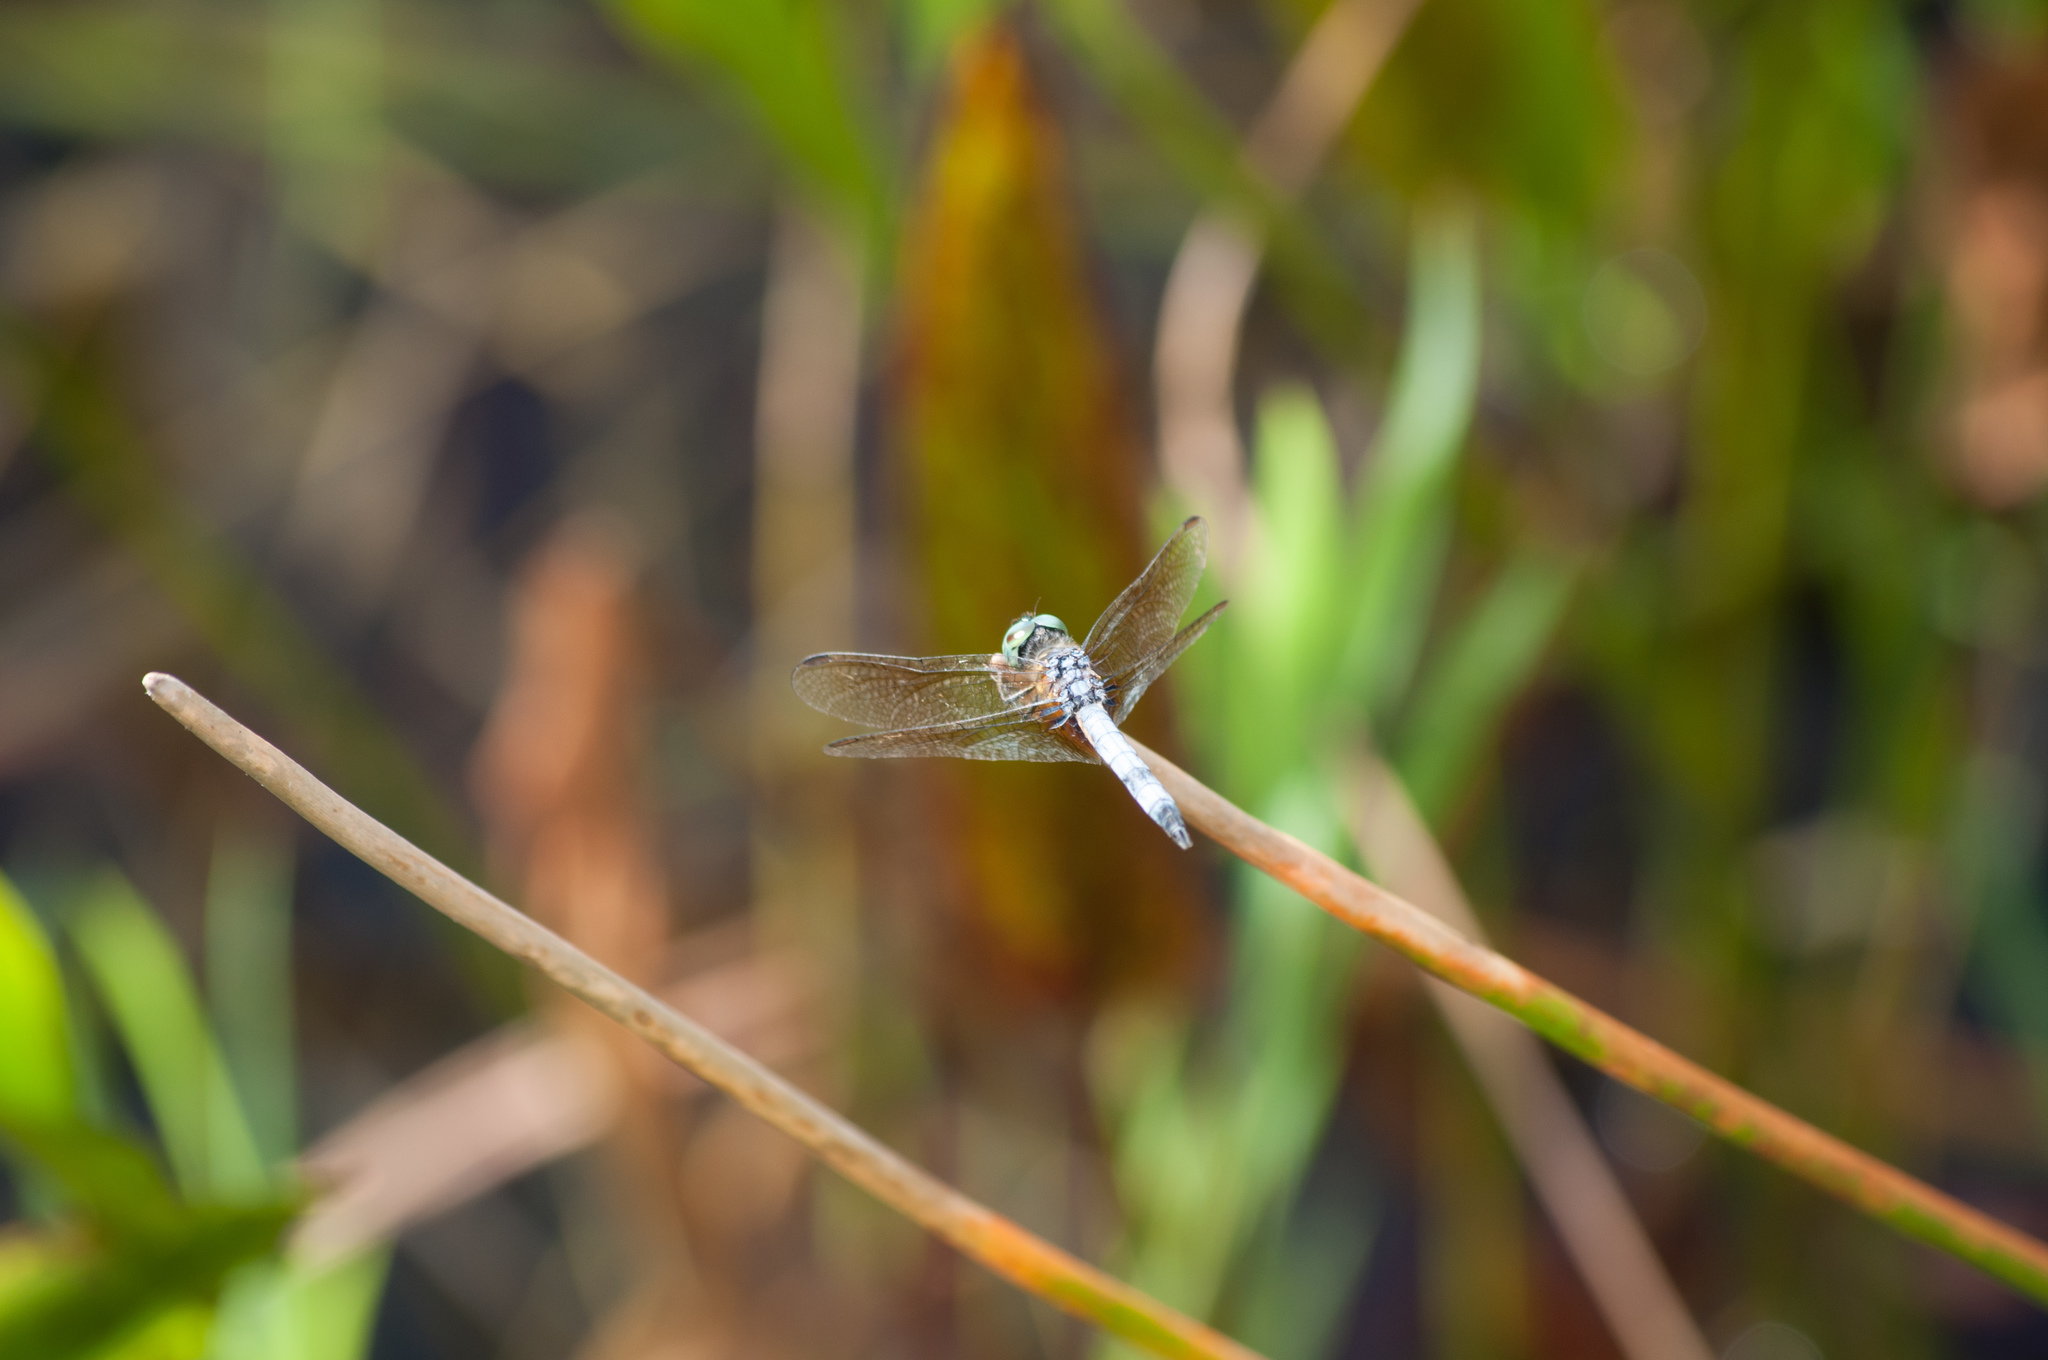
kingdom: Animalia
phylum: Arthropoda
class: Insecta
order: Odonata
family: Libellulidae
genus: Pachydiplax
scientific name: Pachydiplax longipennis
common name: Blue dasher
